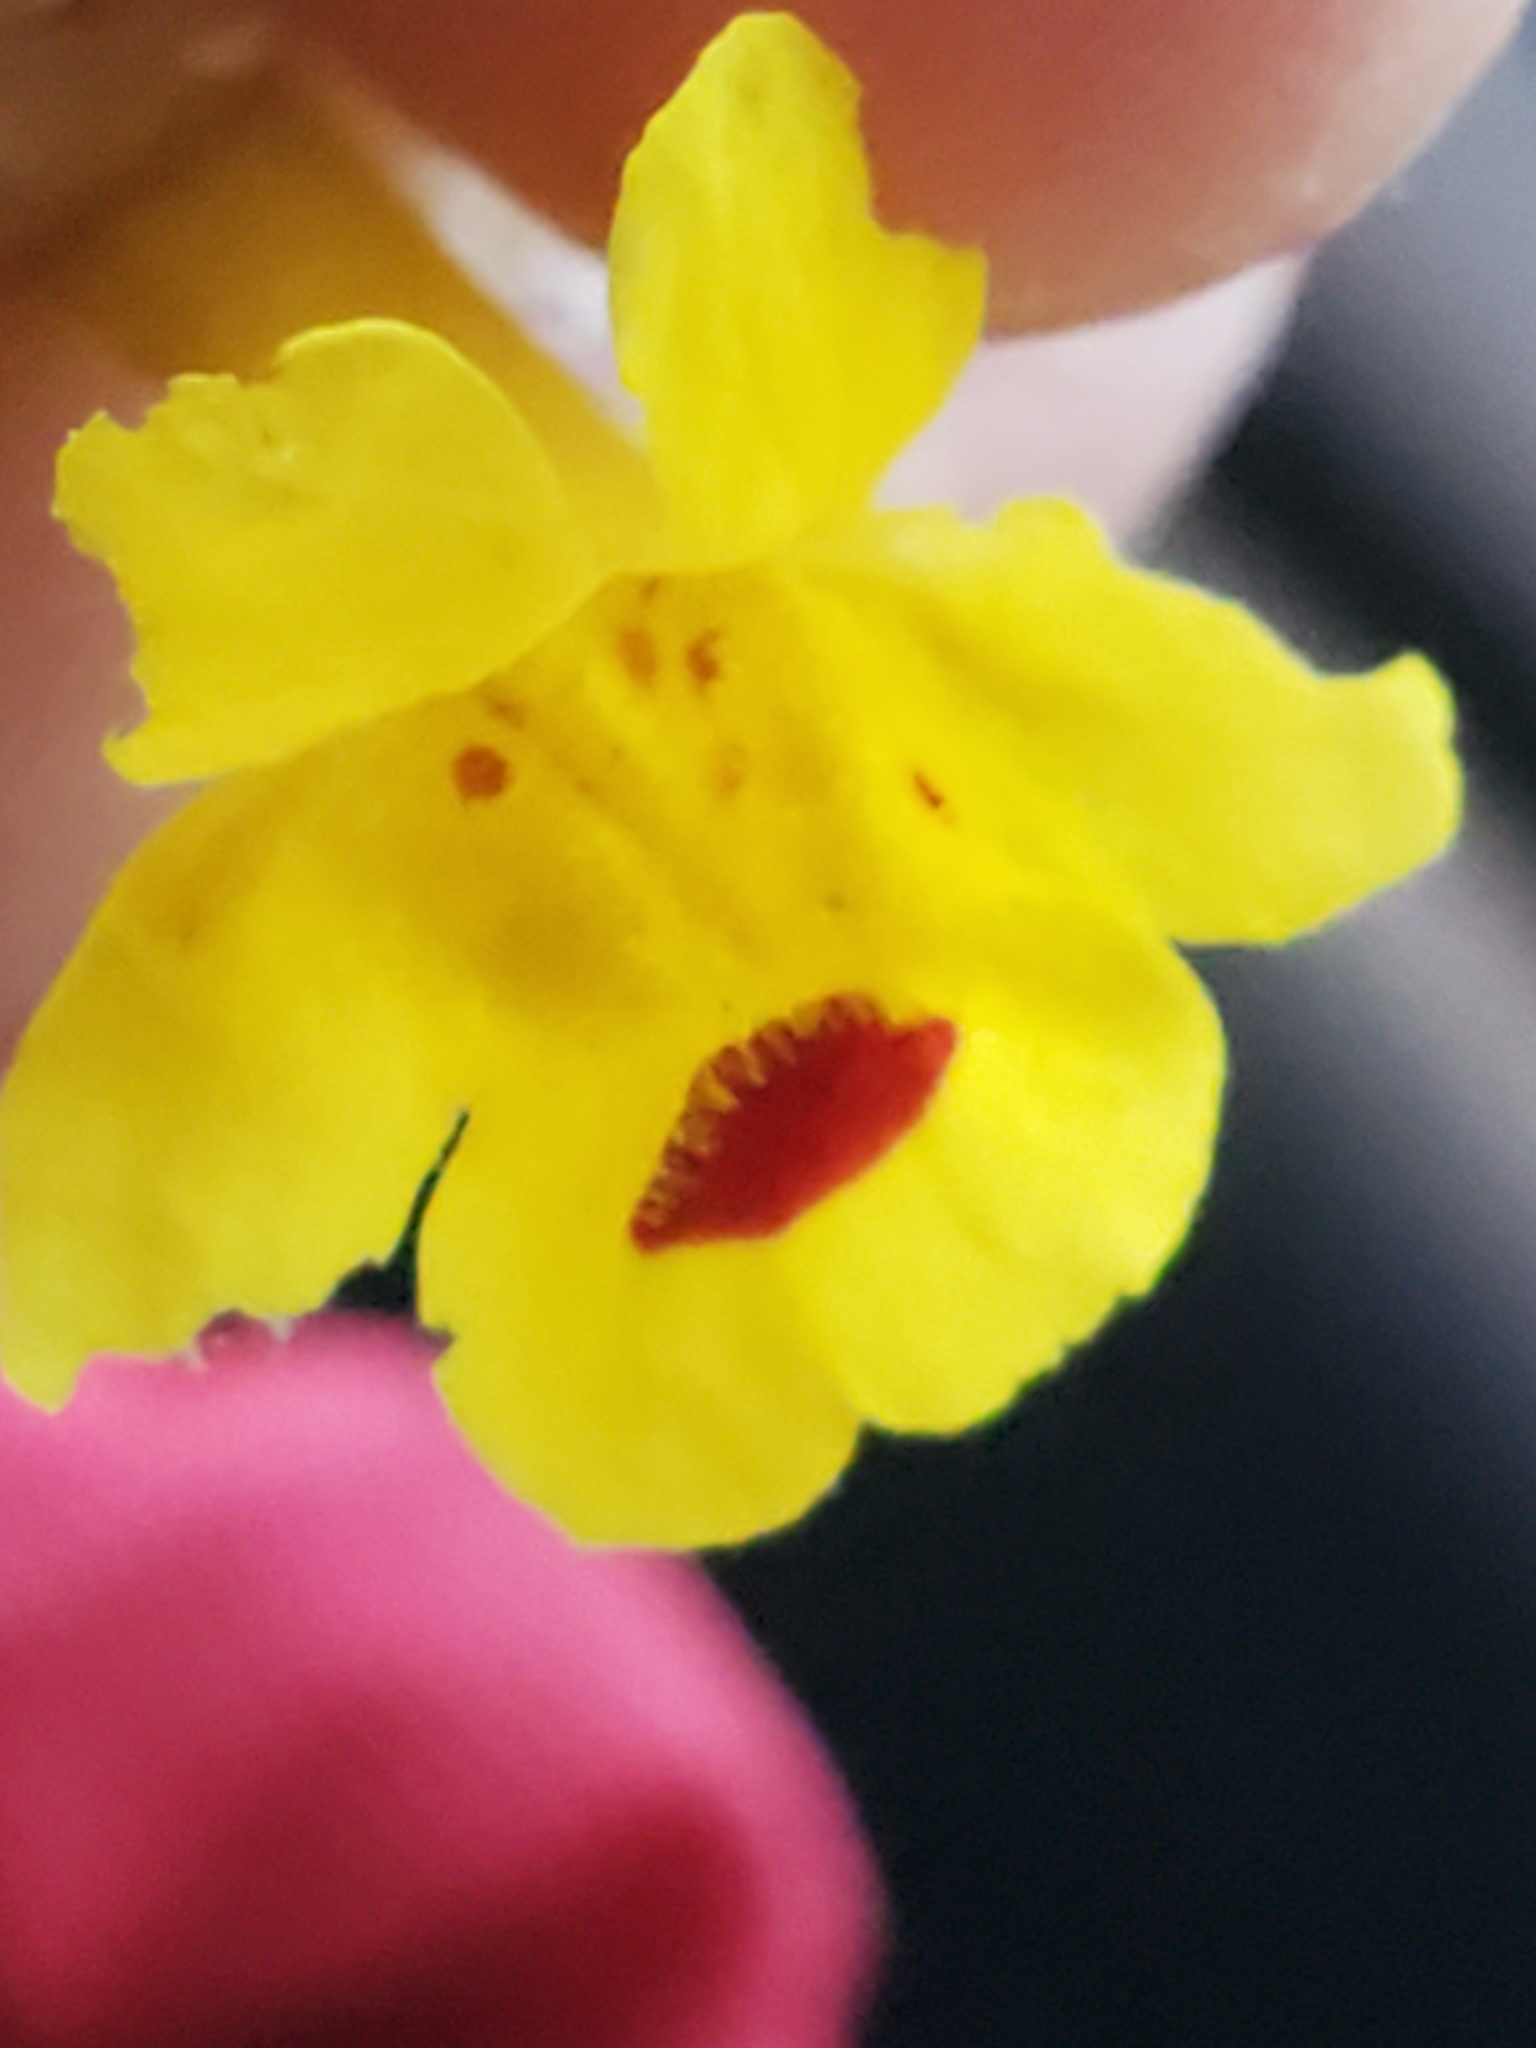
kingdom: Plantae
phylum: Tracheophyta
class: Magnoliopsida
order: Lamiales
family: Phrymaceae
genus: Erythranthe
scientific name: Erythranthe nasuta
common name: Sooke monkeyflower
